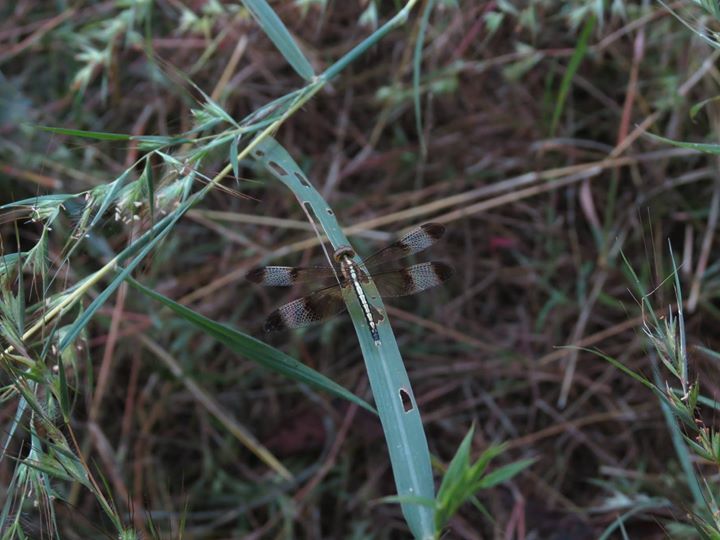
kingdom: Animalia
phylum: Arthropoda
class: Insecta
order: Odonata
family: Libellulidae
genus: Neurothemis
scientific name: Neurothemis tullia
